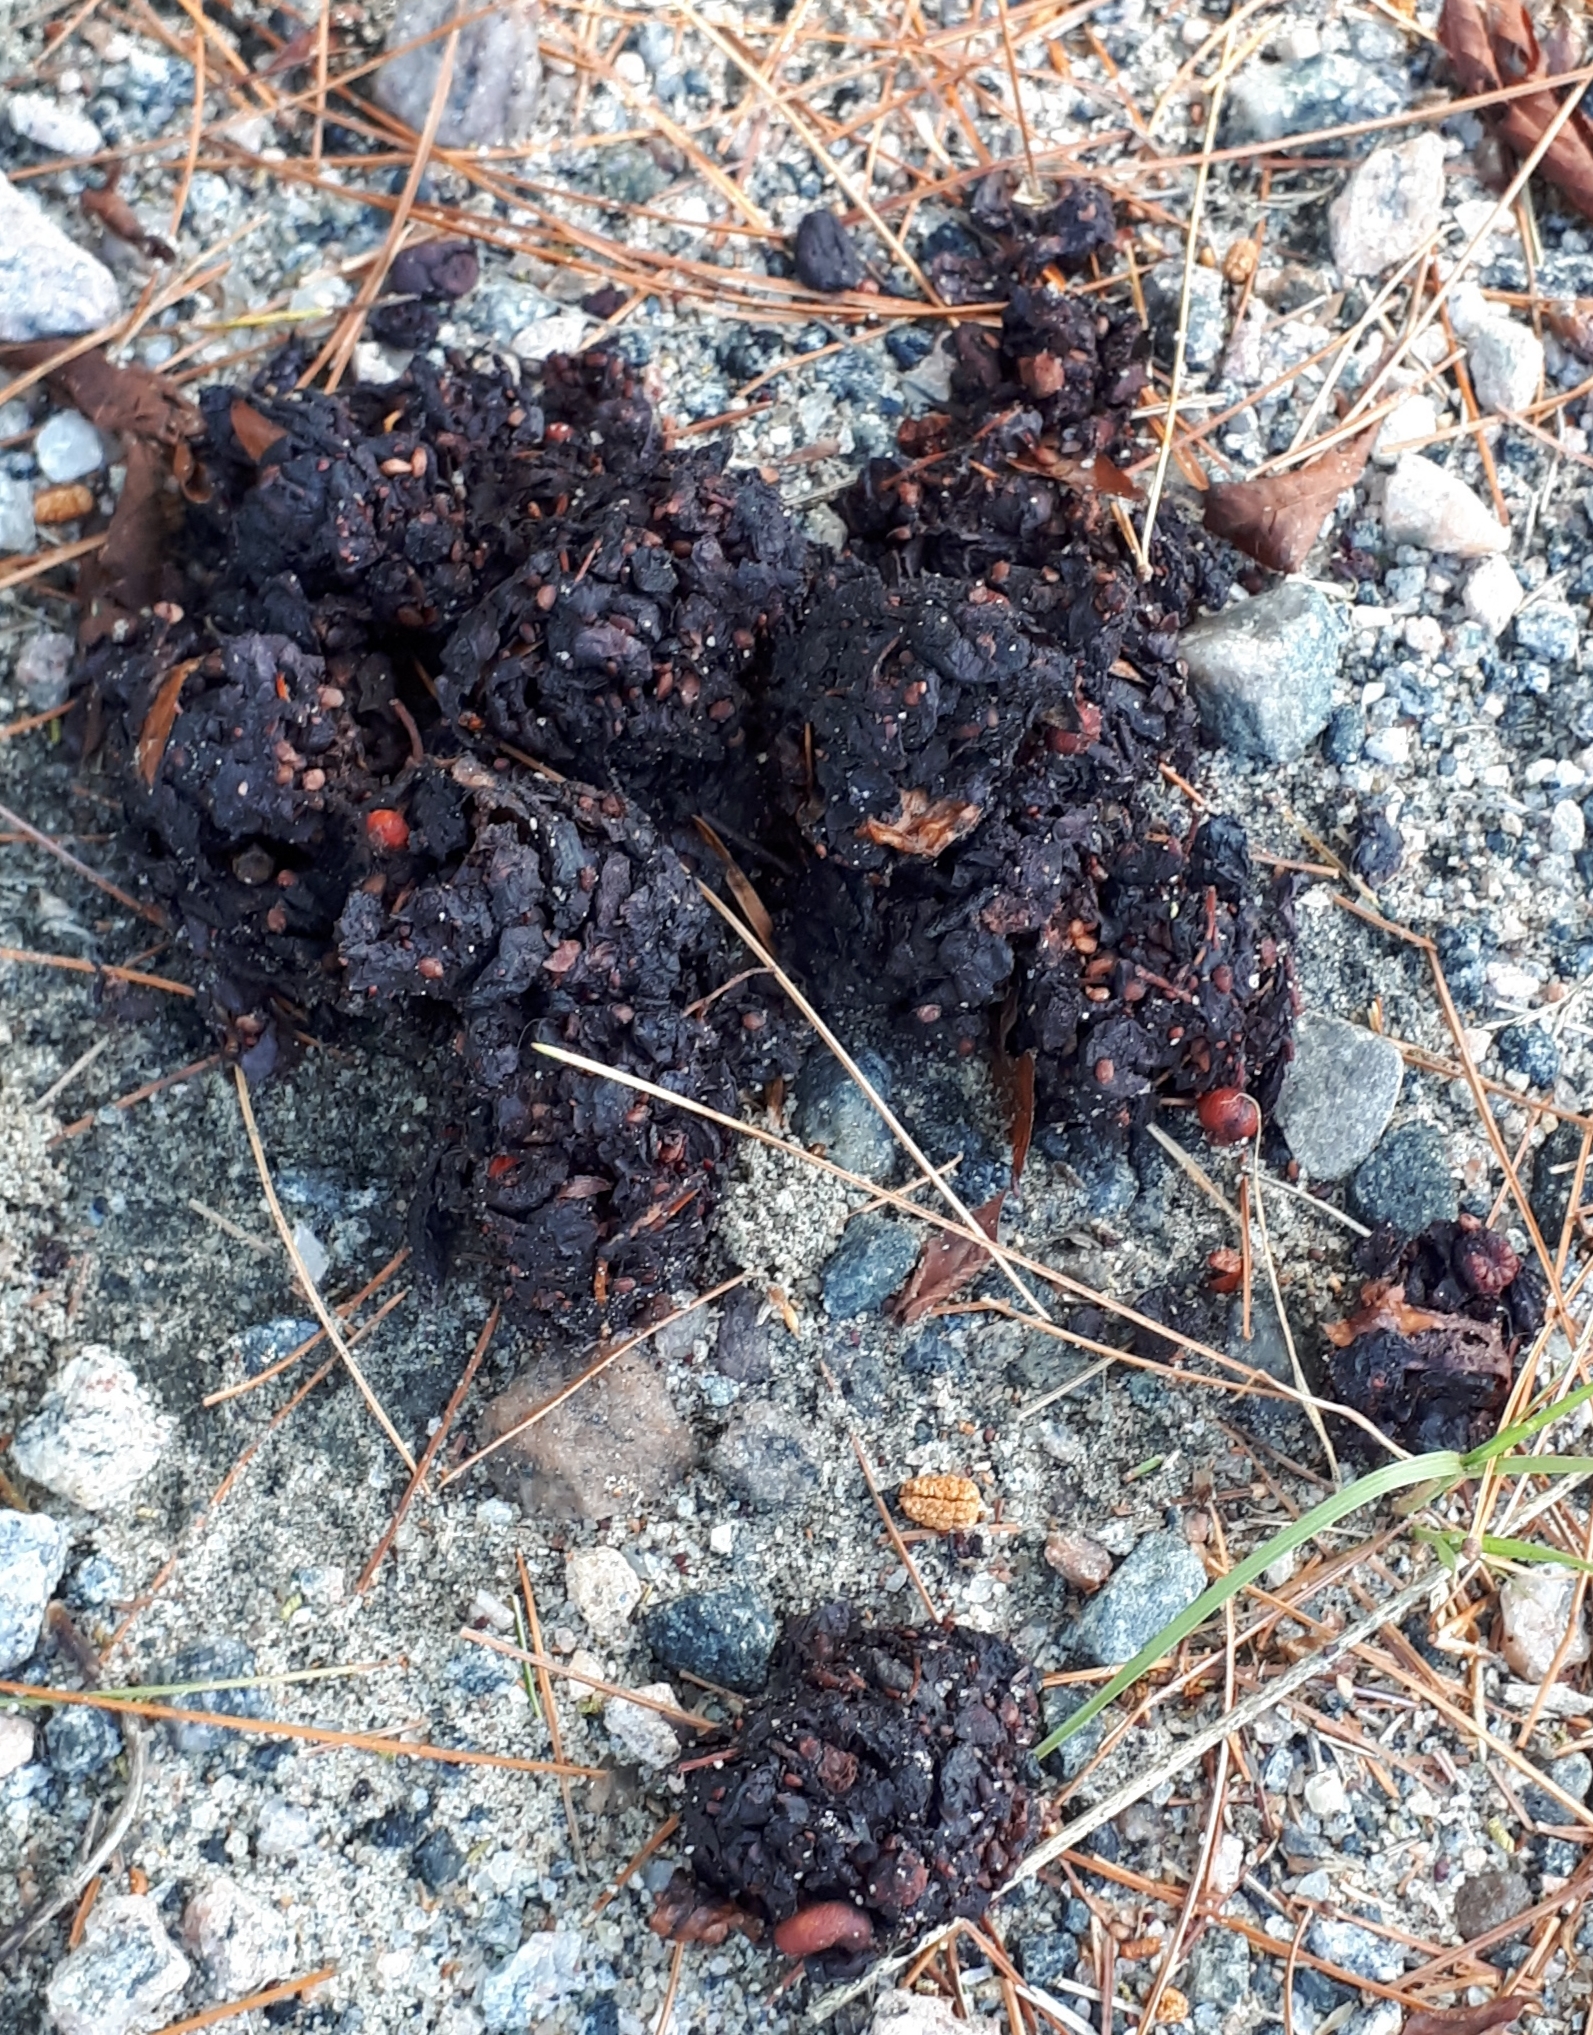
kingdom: Animalia
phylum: Chordata
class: Mammalia
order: Carnivora
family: Ursidae
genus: Ursus
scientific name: Ursus americanus
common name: American black bear
